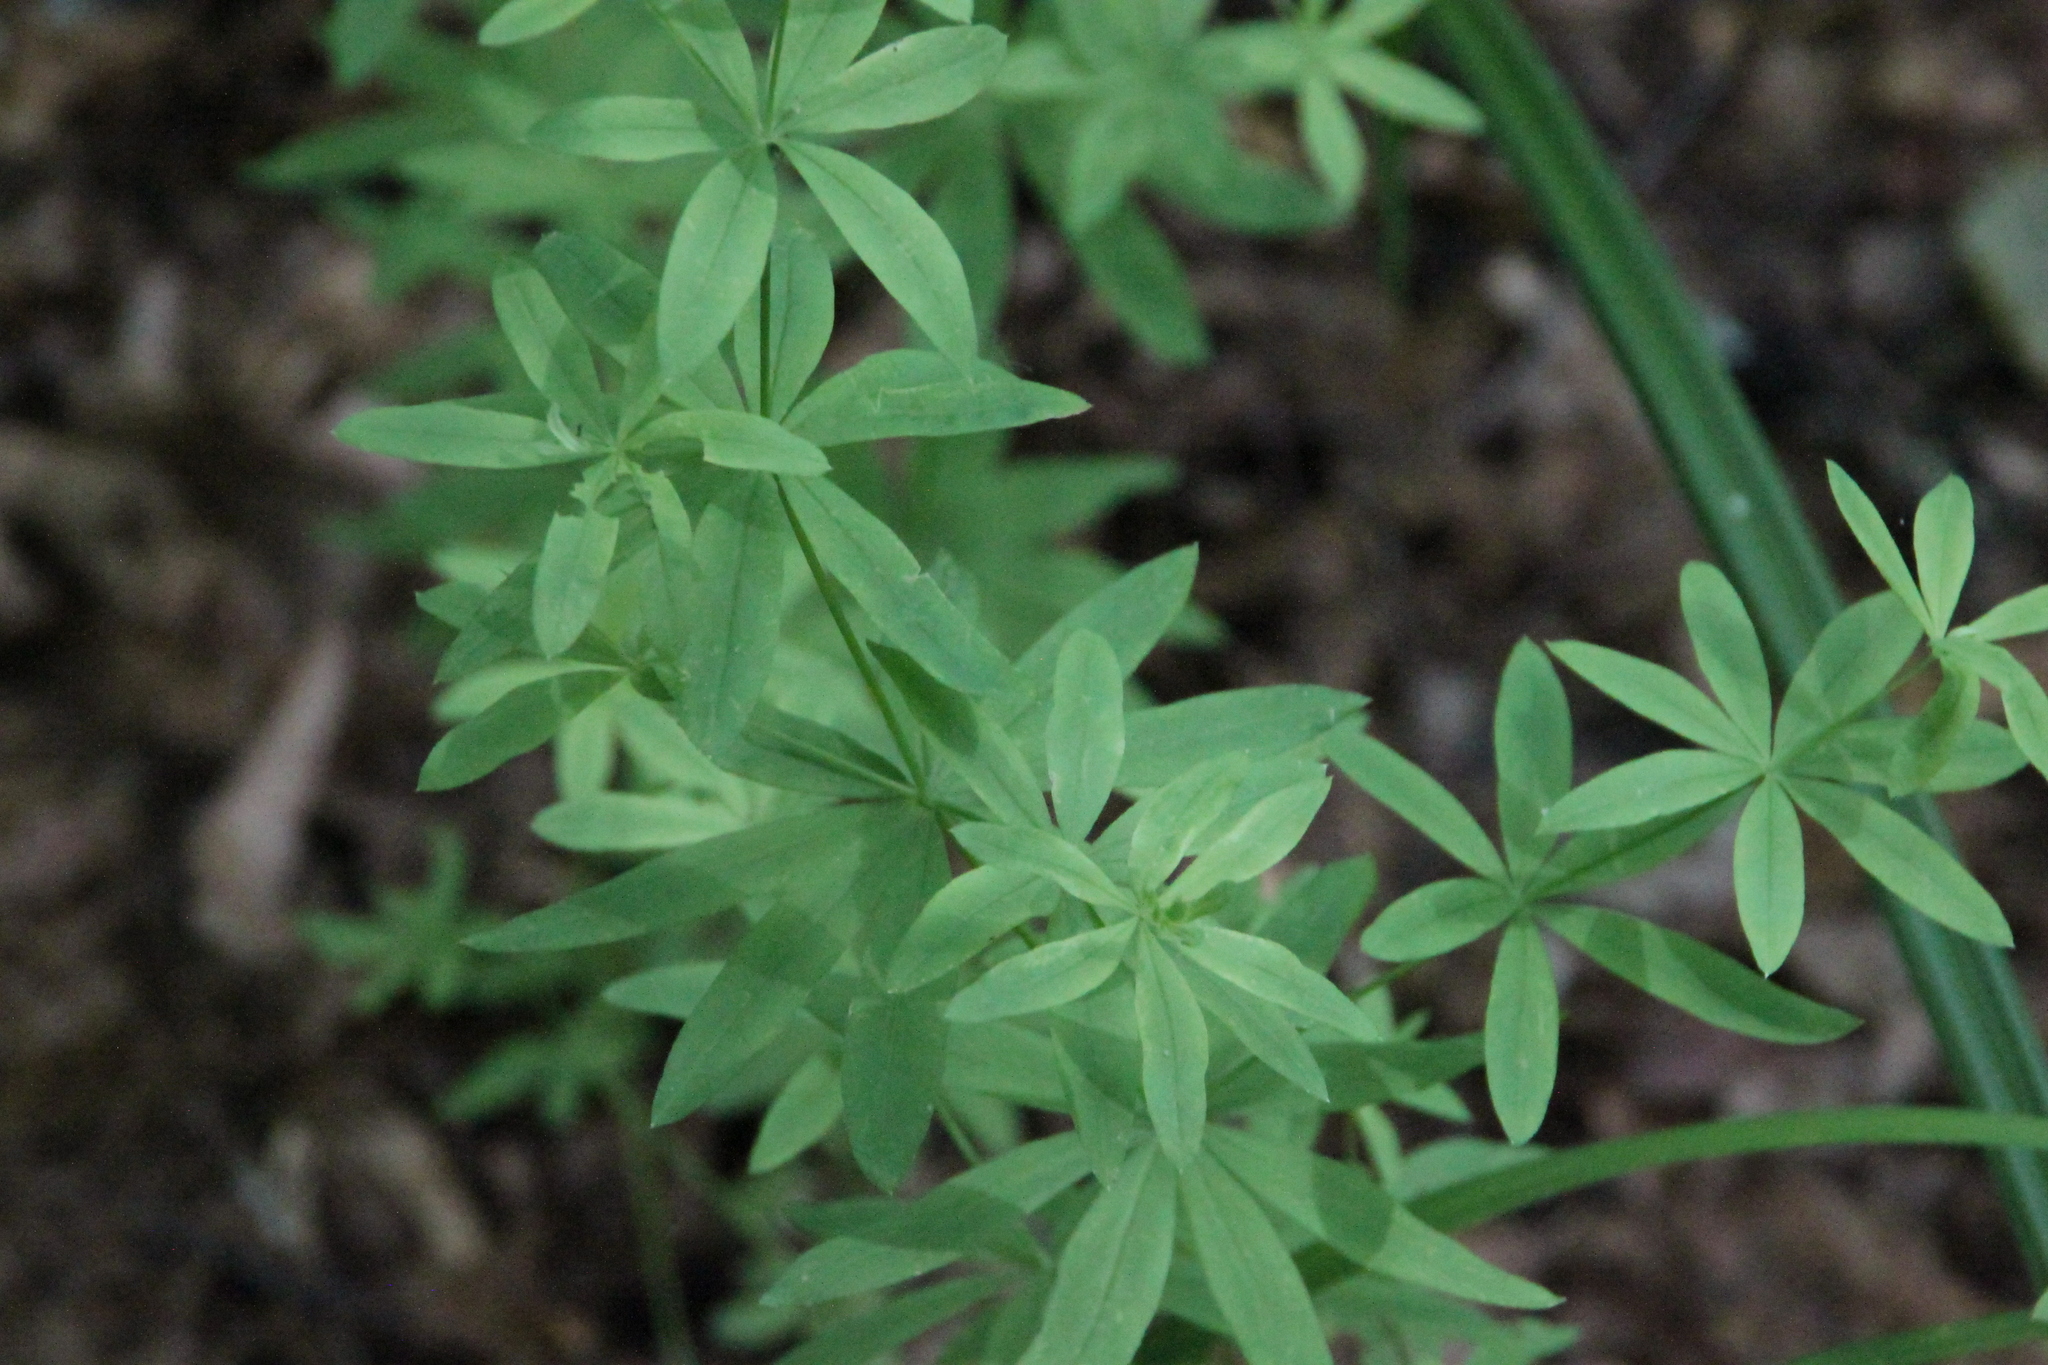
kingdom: Plantae
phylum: Tracheophyta
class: Magnoliopsida
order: Gentianales
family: Rubiaceae
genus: Galium
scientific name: Galium intermedium
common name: Bedstraw
